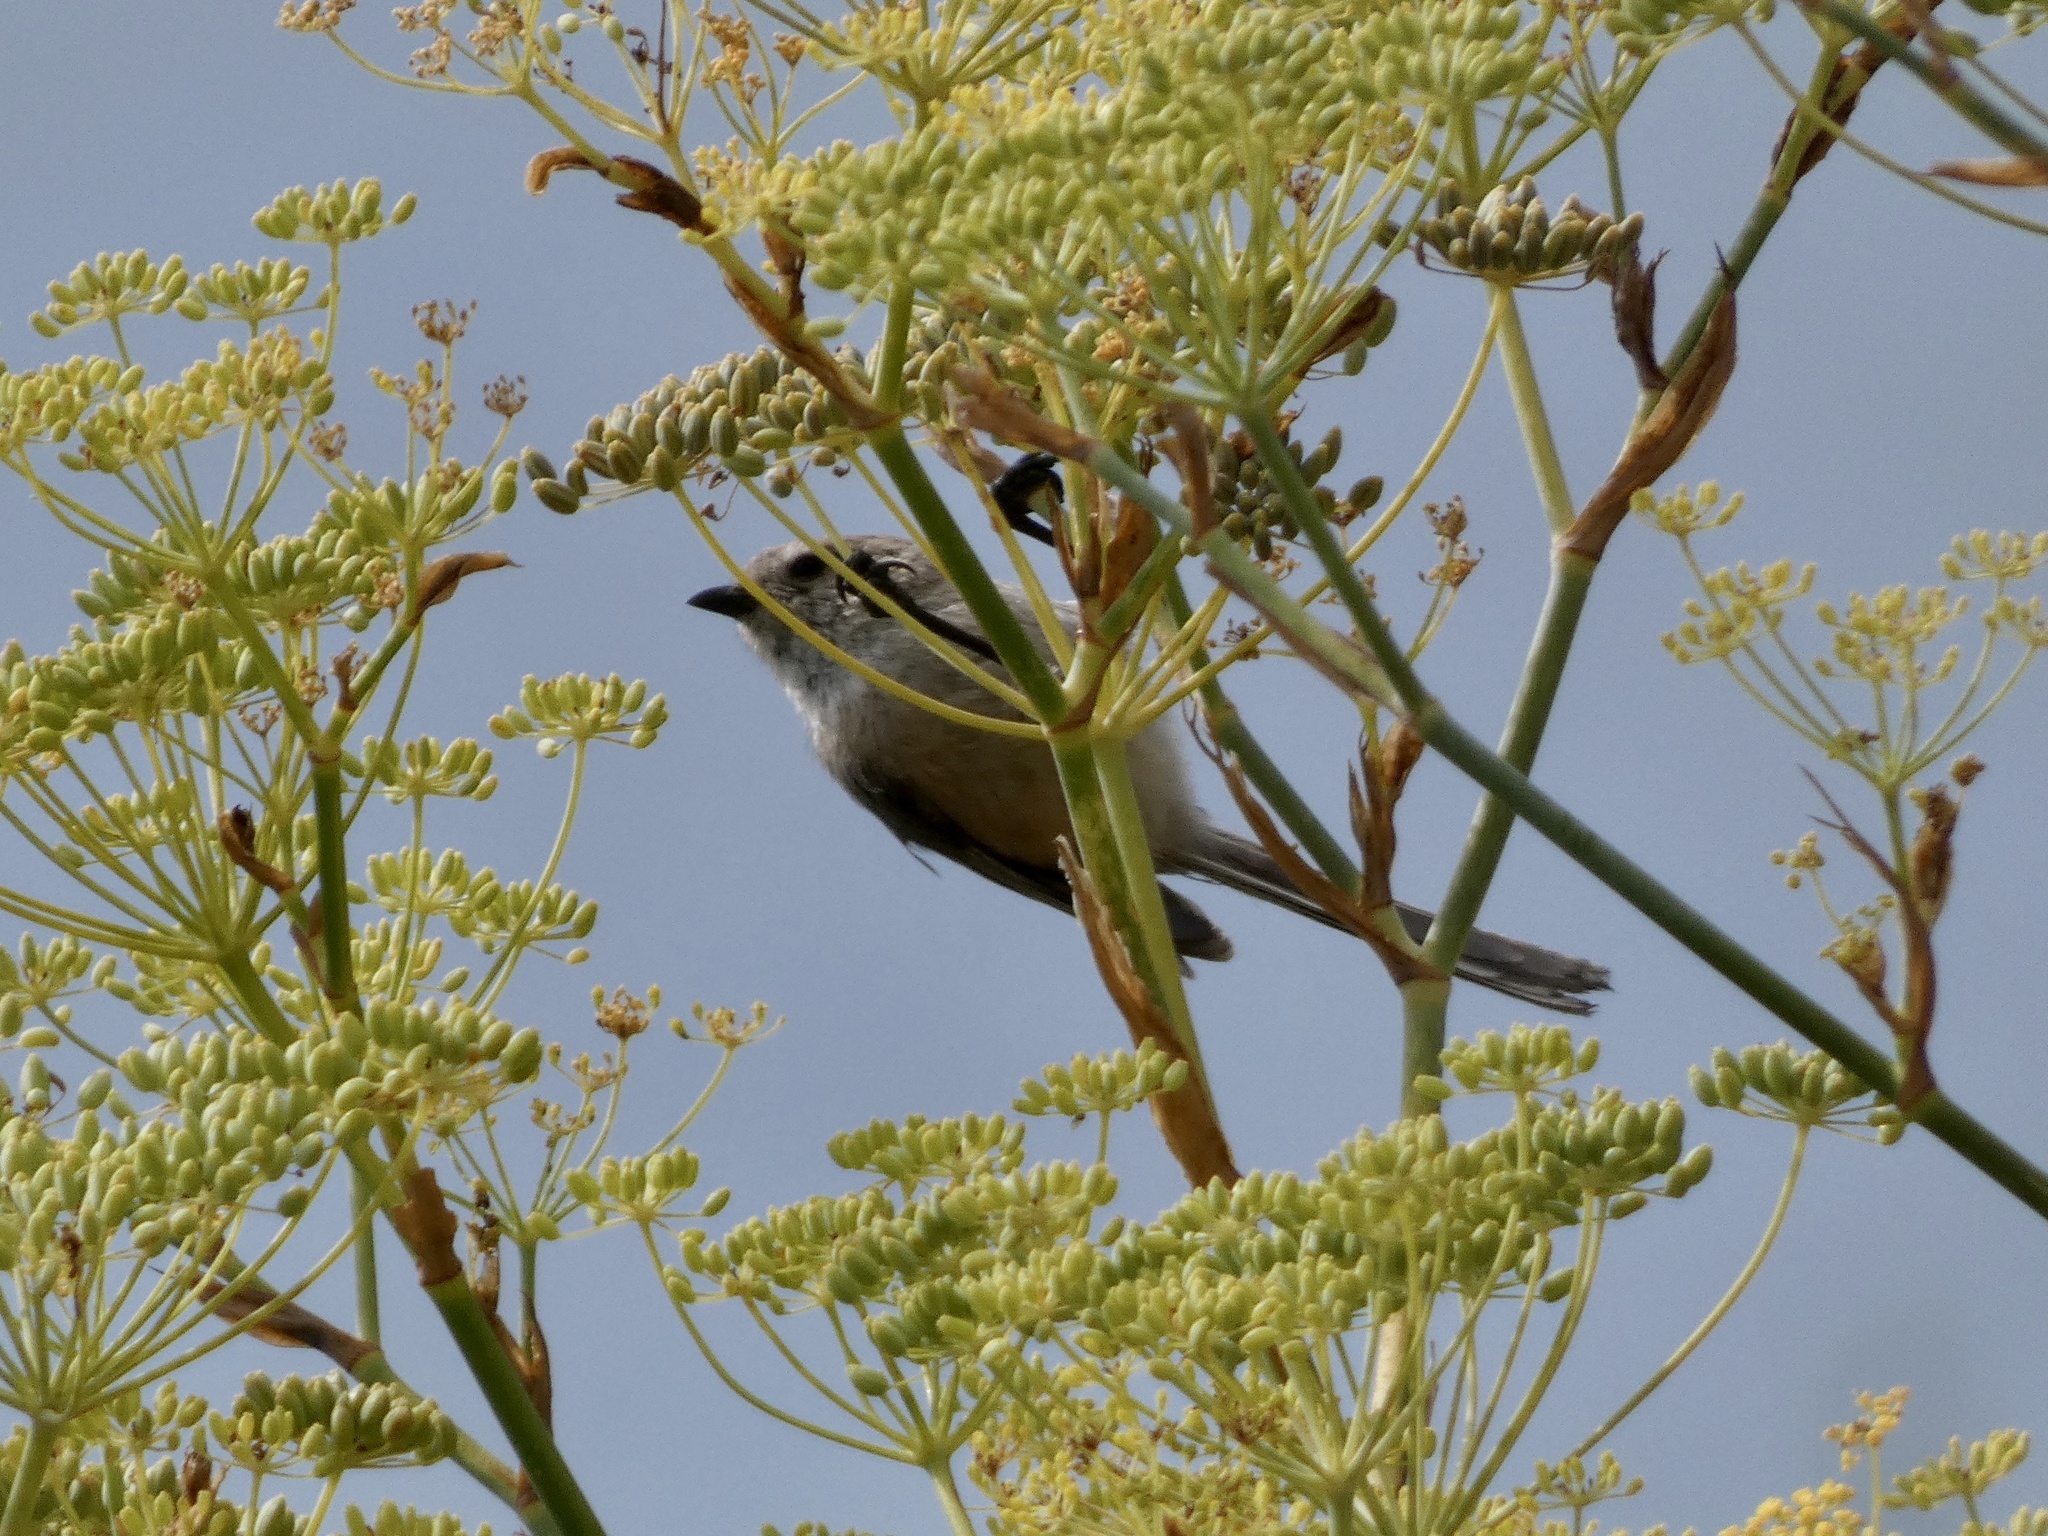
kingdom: Animalia
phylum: Chordata
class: Aves
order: Passeriformes
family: Aegithalidae
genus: Psaltriparus
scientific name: Psaltriparus minimus
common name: American bushtit
